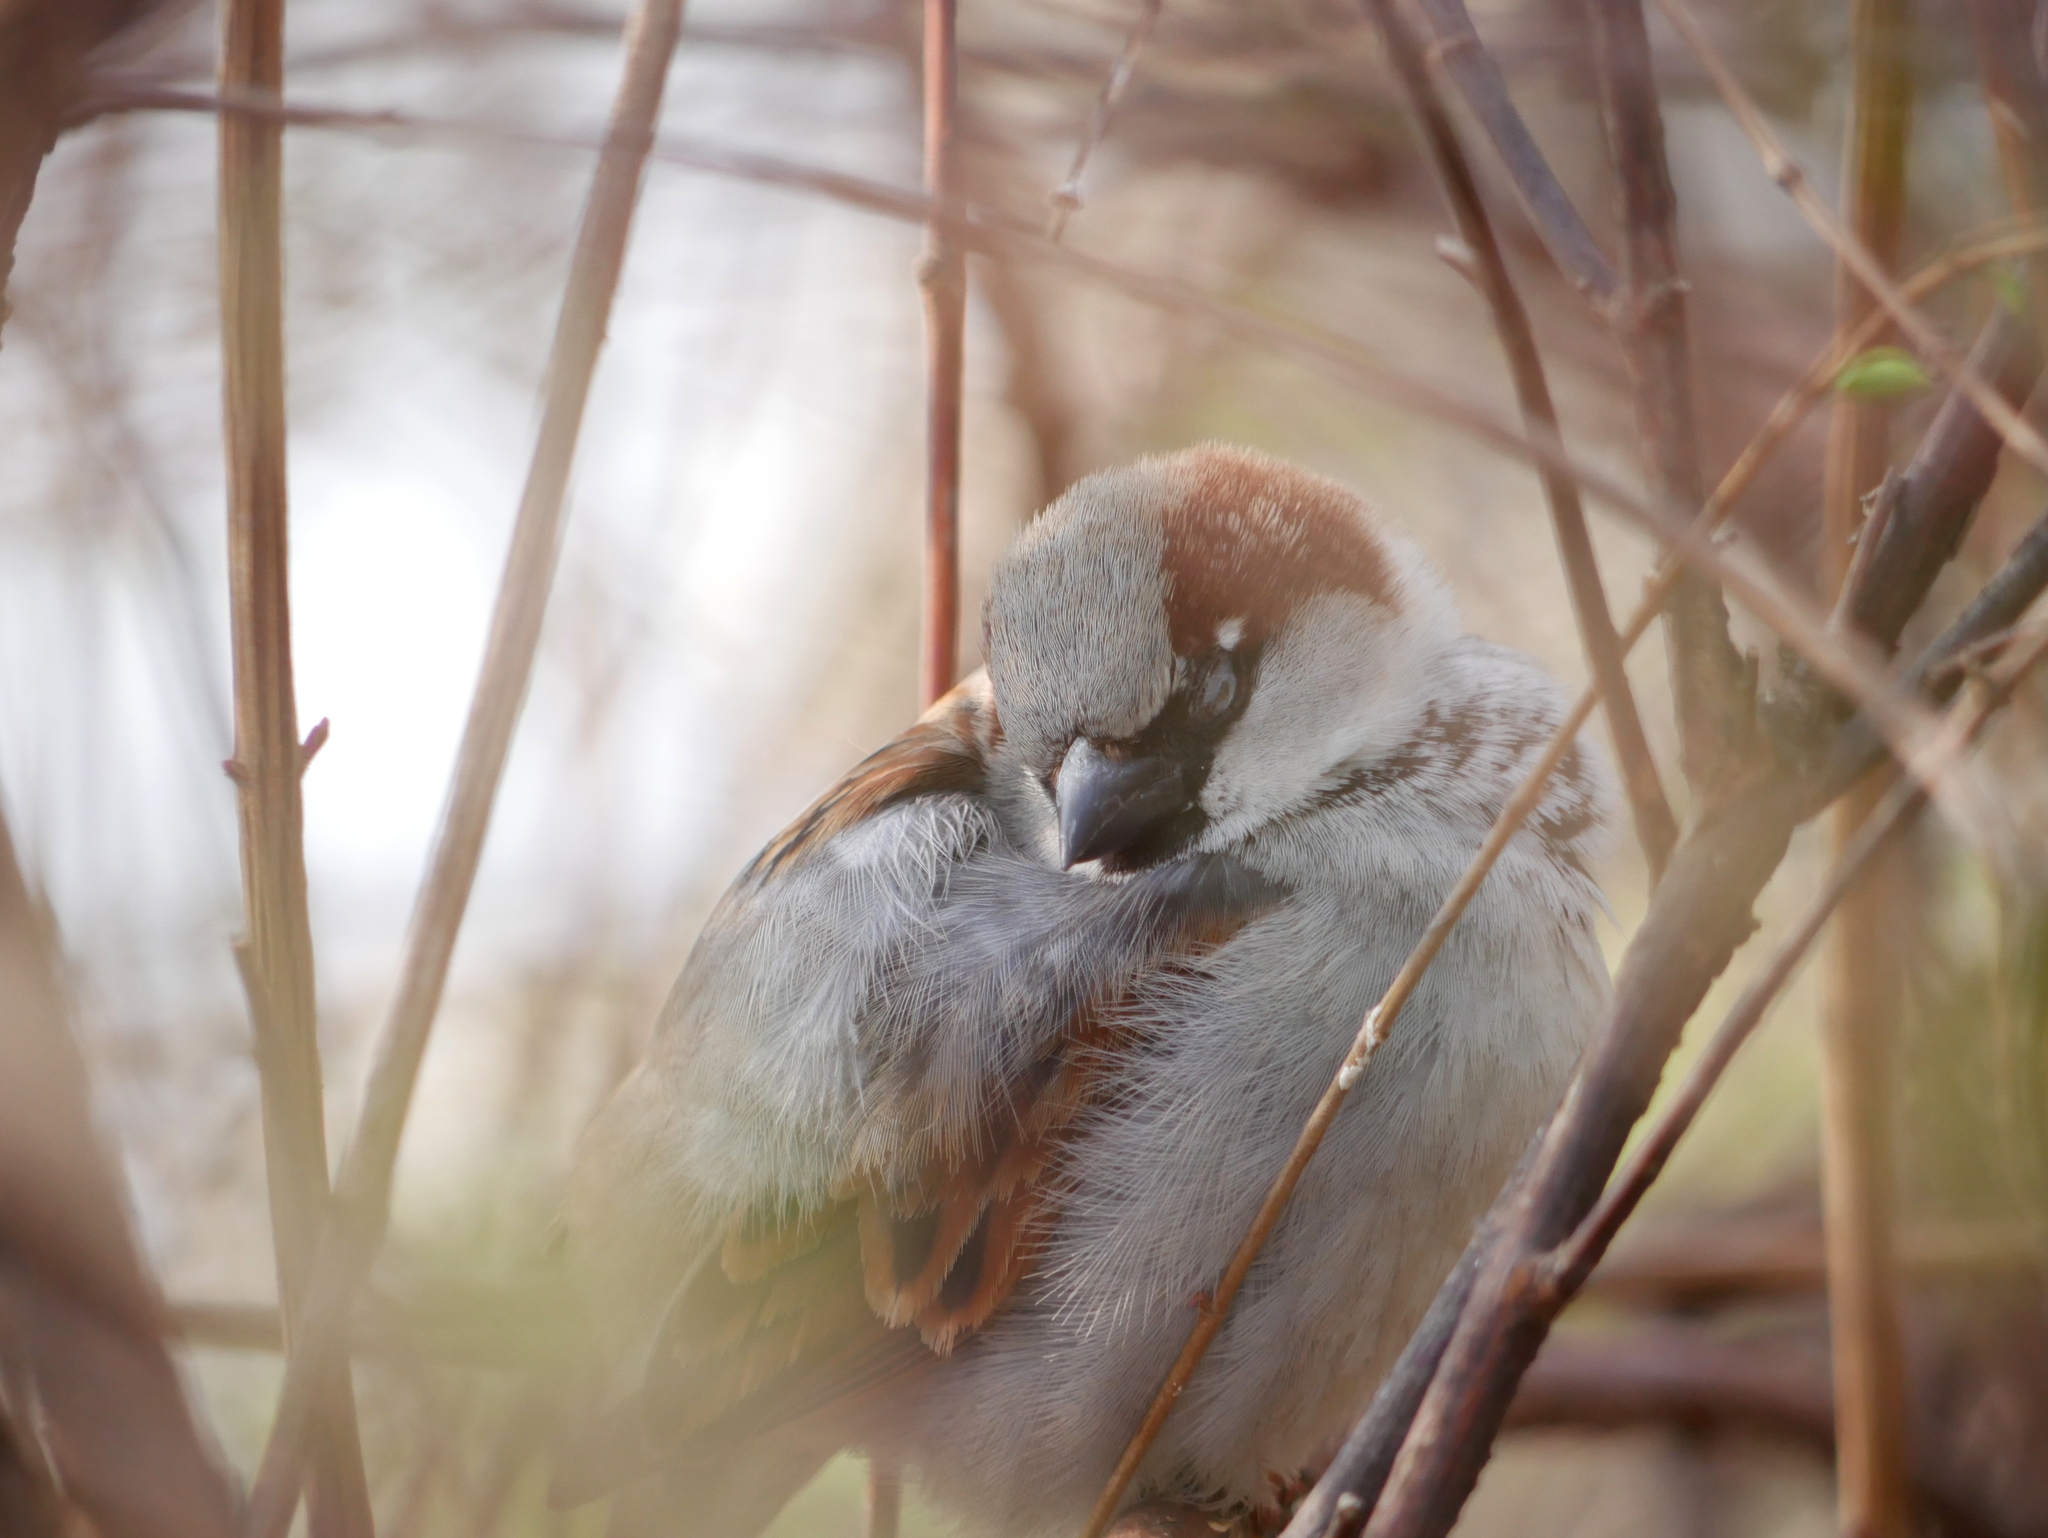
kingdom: Animalia
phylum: Chordata
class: Aves
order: Passeriformes
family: Passeridae
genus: Passer
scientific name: Passer domesticus
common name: House sparrow
